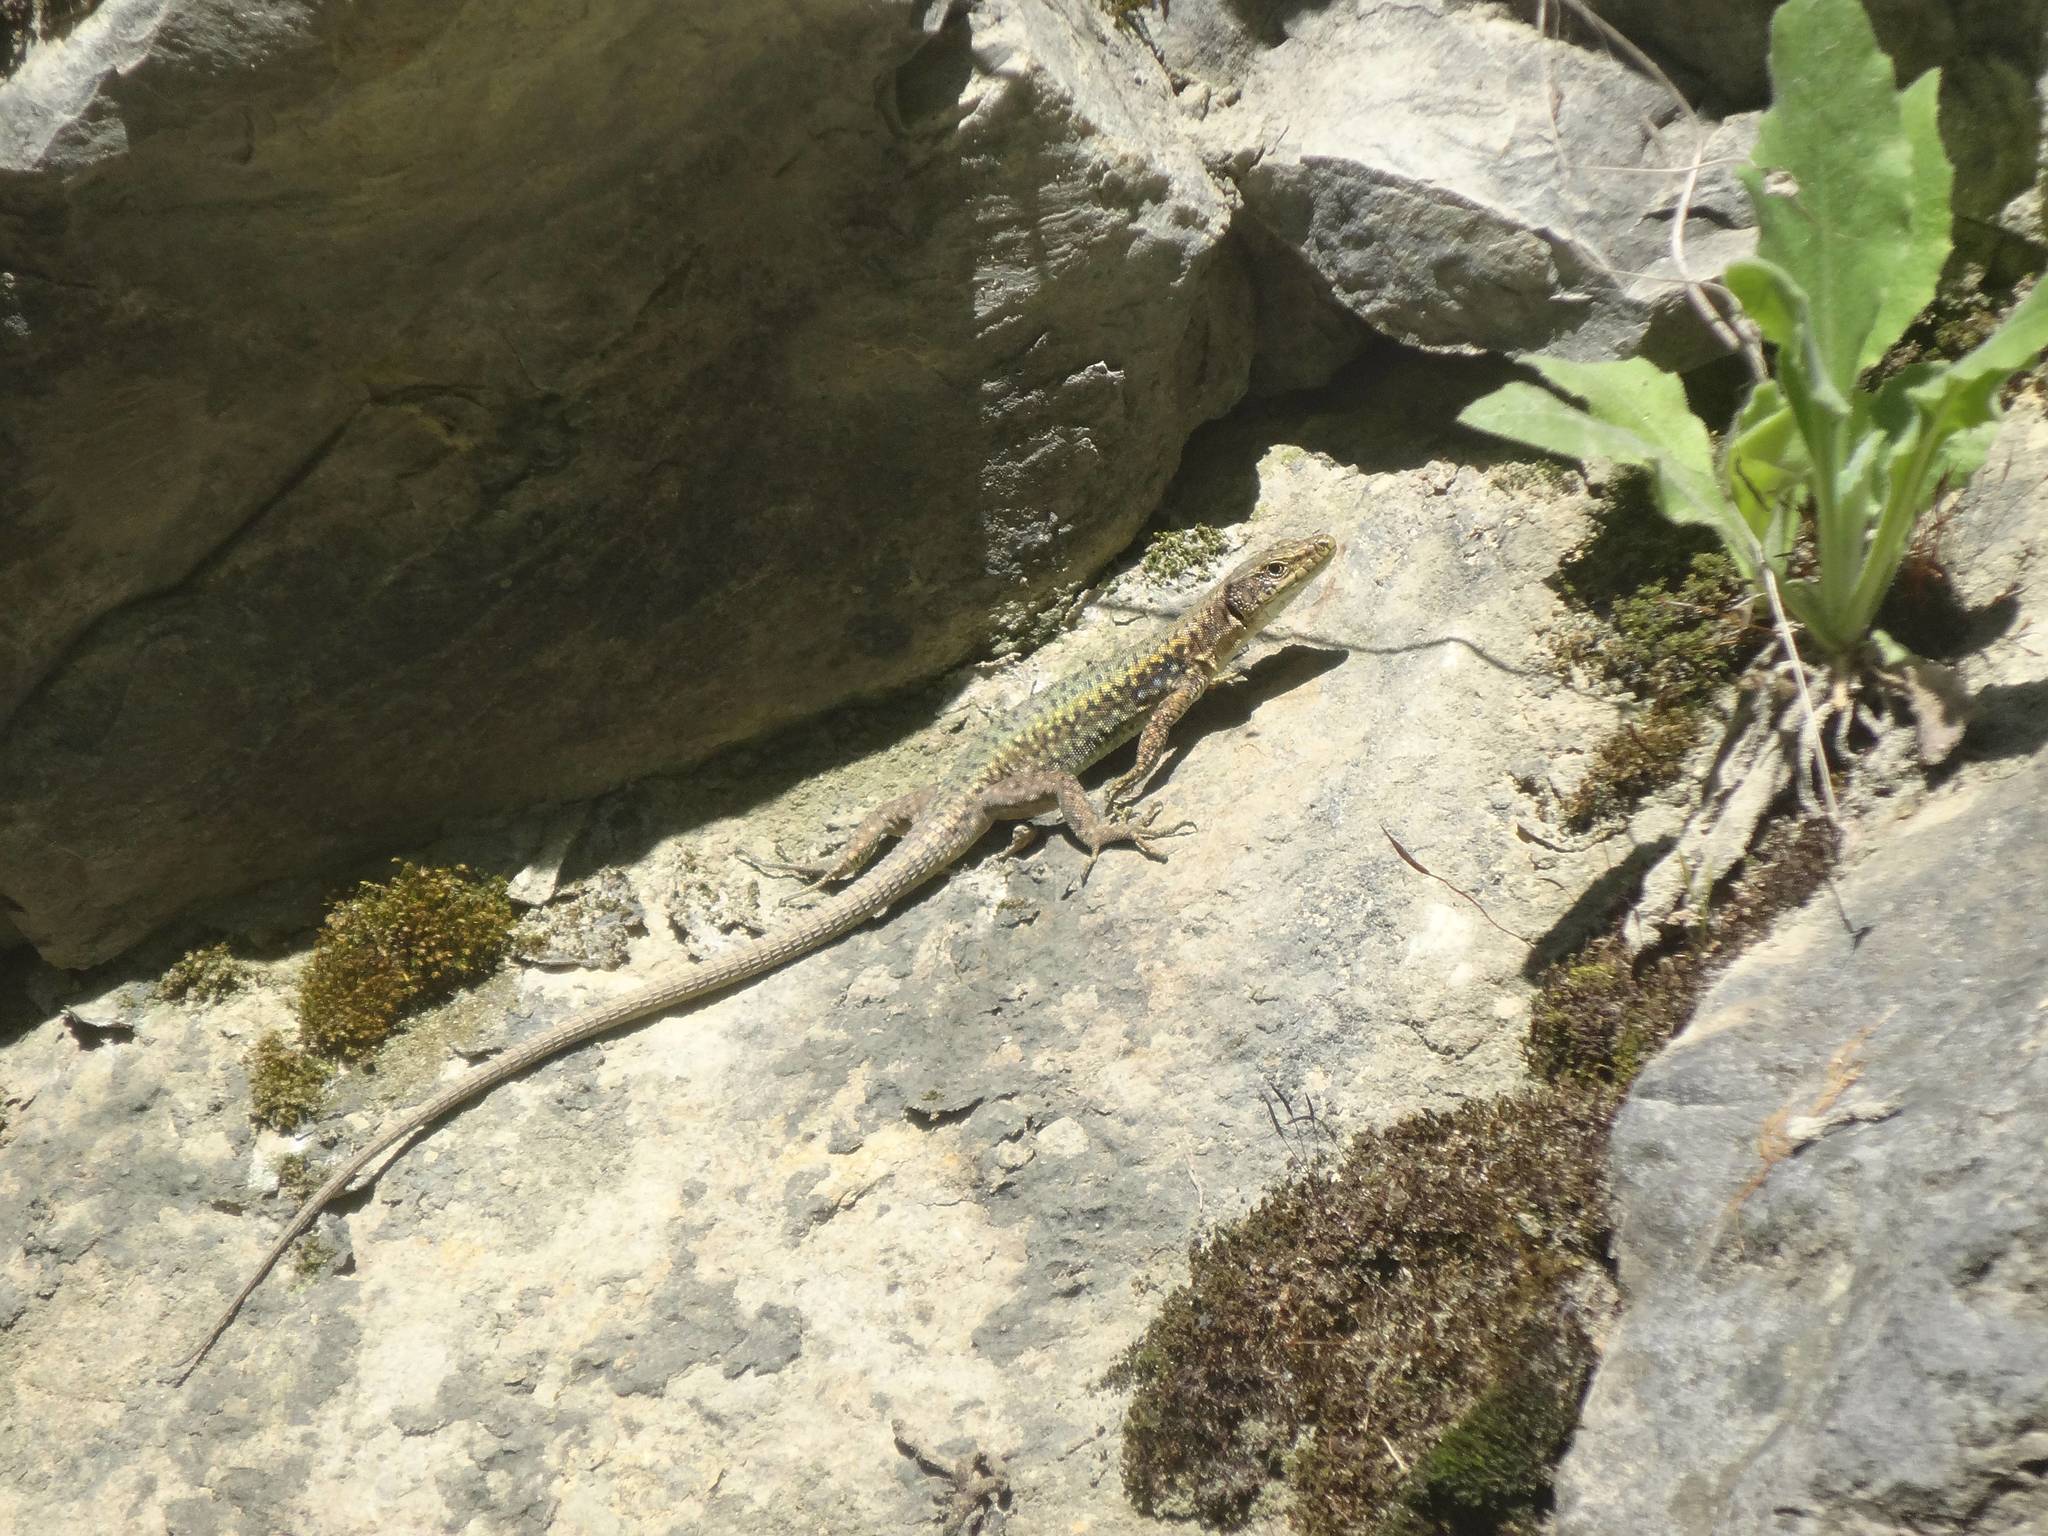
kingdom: Animalia
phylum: Chordata
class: Squamata
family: Lacertidae
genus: Darevskia
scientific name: Darevskia bithynica
